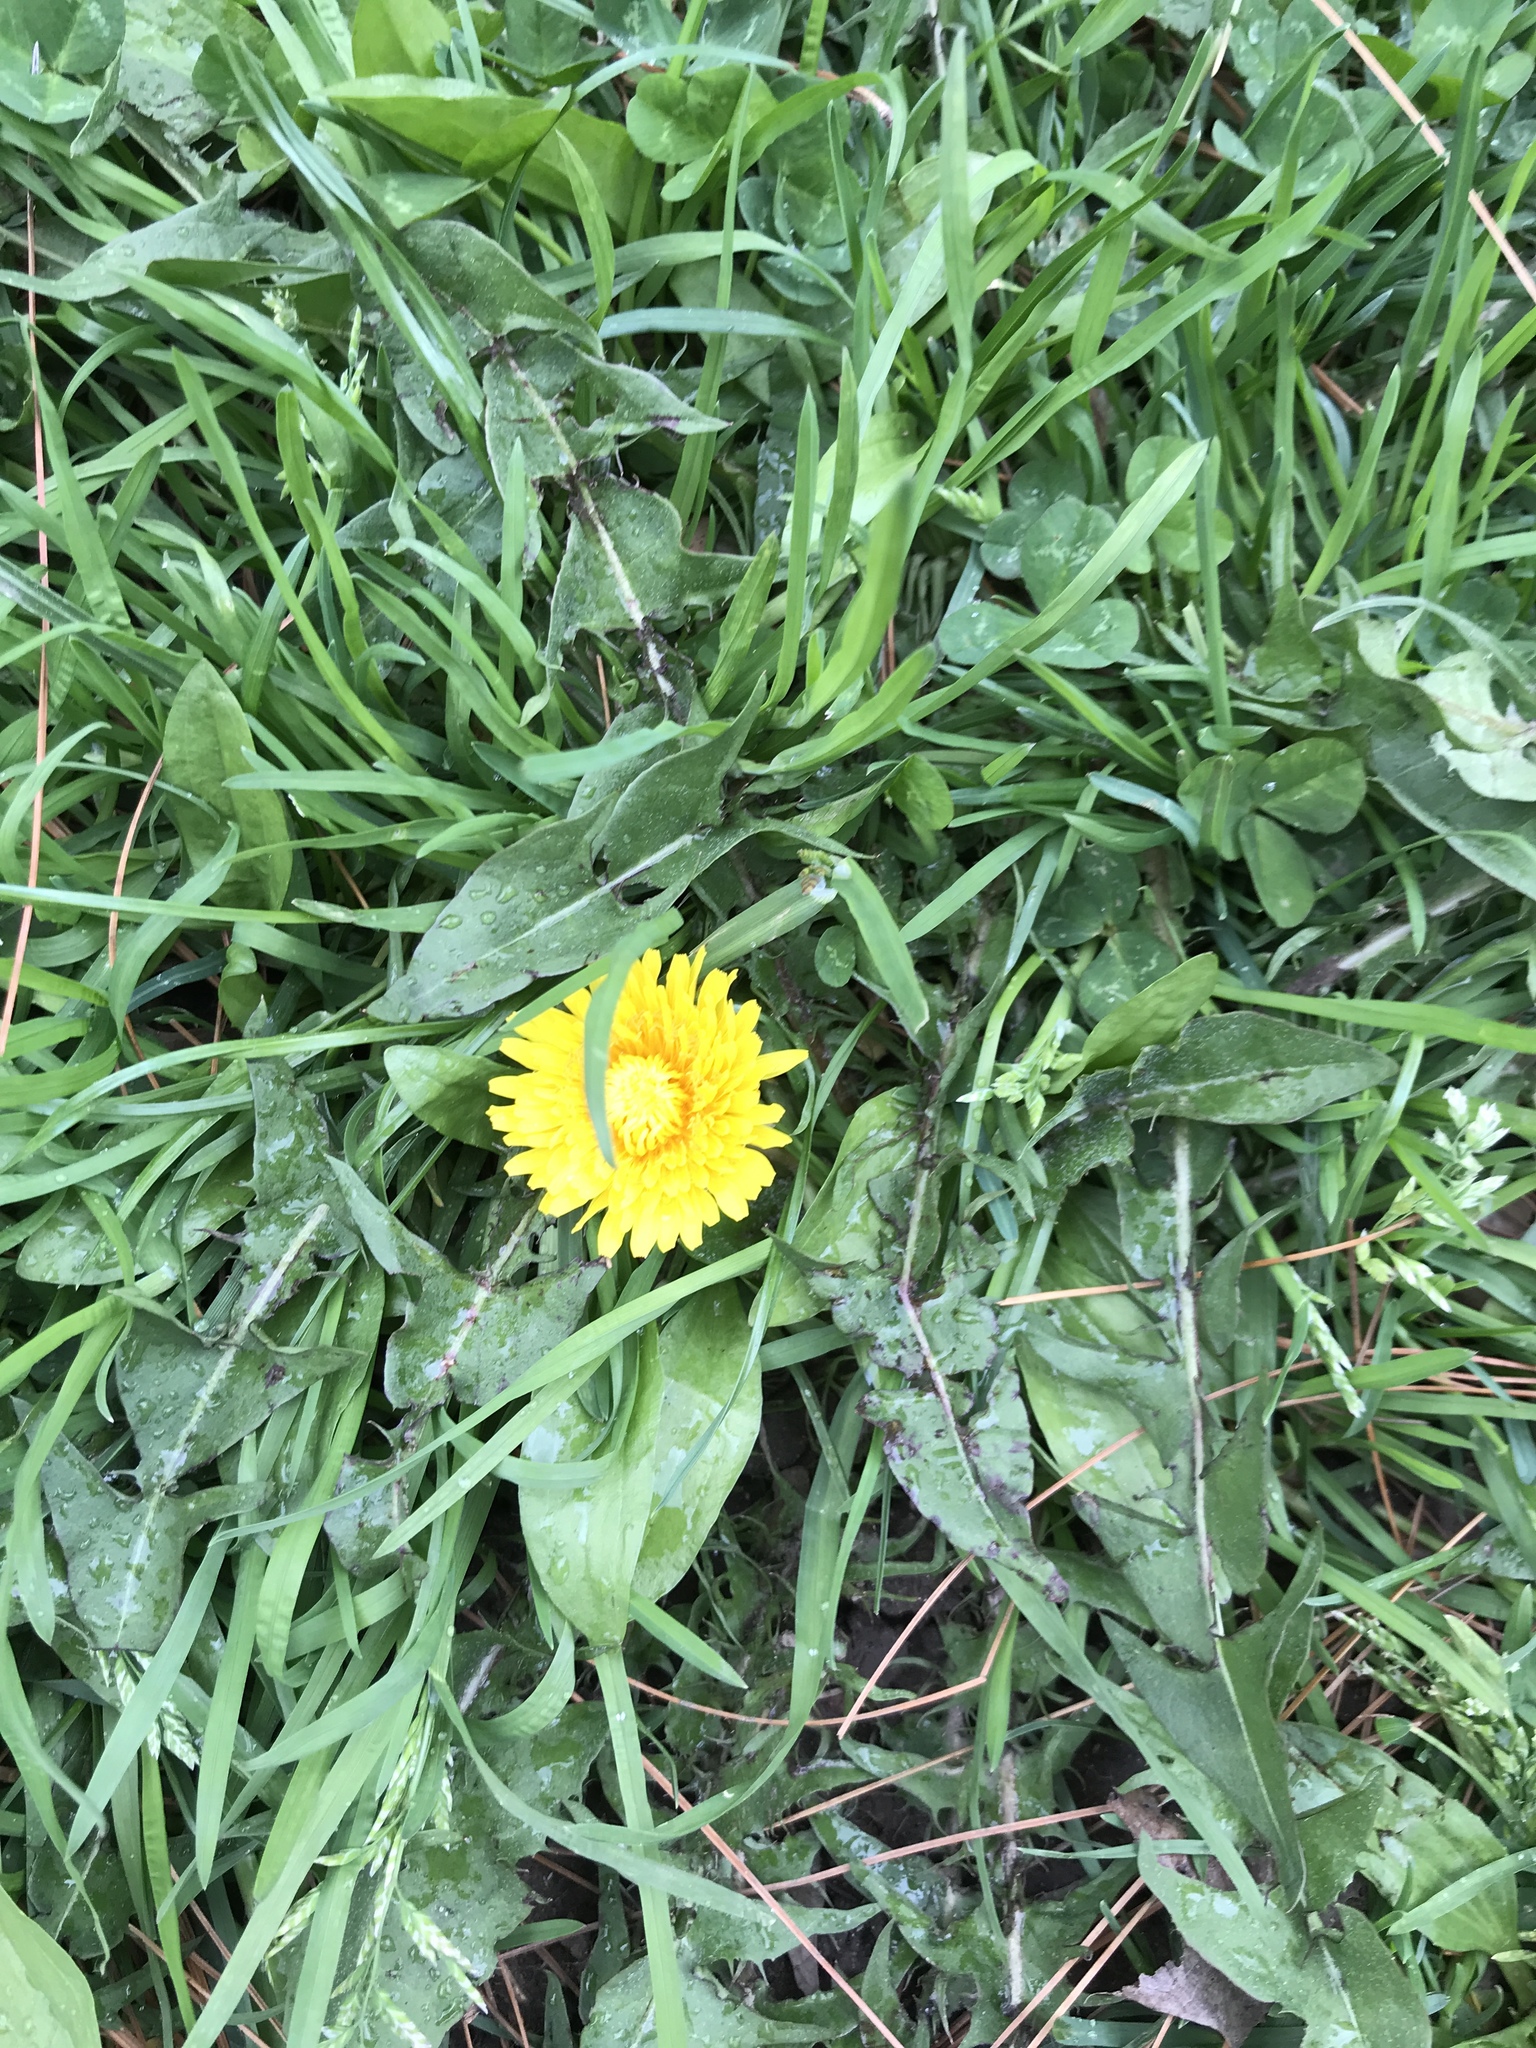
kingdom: Plantae
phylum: Tracheophyta
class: Magnoliopsida
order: Asterales
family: Asteraceae
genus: Taraxacum
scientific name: Taraxacum officinale
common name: Common dandelion
